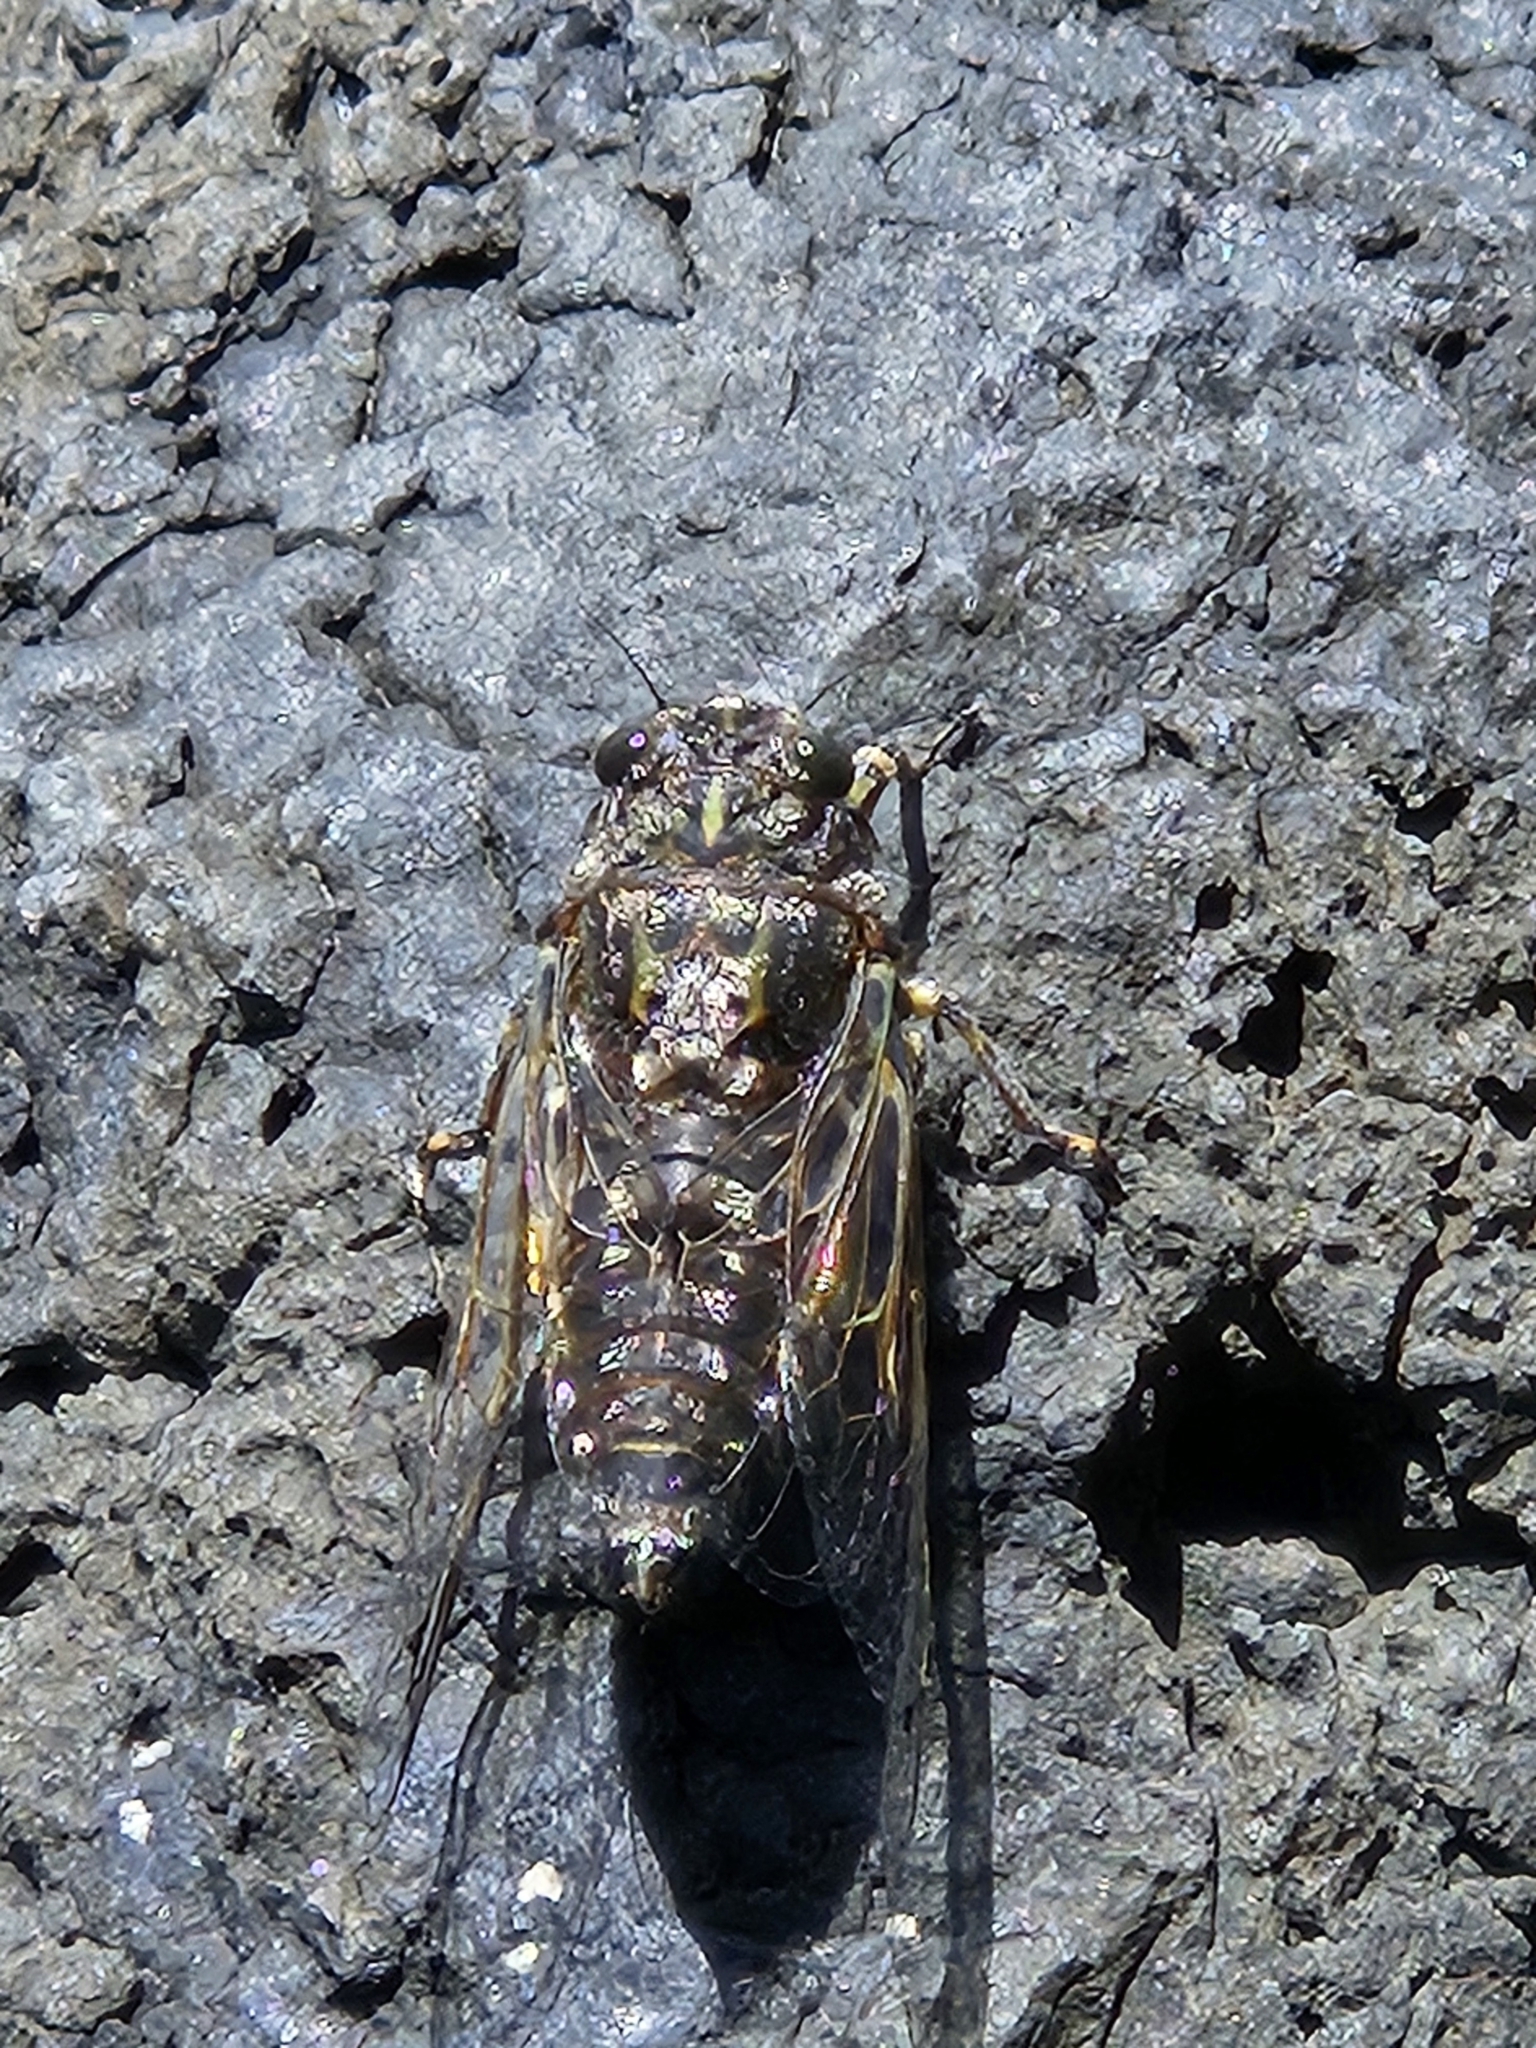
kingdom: Animalia
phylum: Arthropoda
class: Insecta
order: Hemiptera
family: Cicadidae
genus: Amphipsalta
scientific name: Amphipsalta strepitans
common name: Chirping cicada
